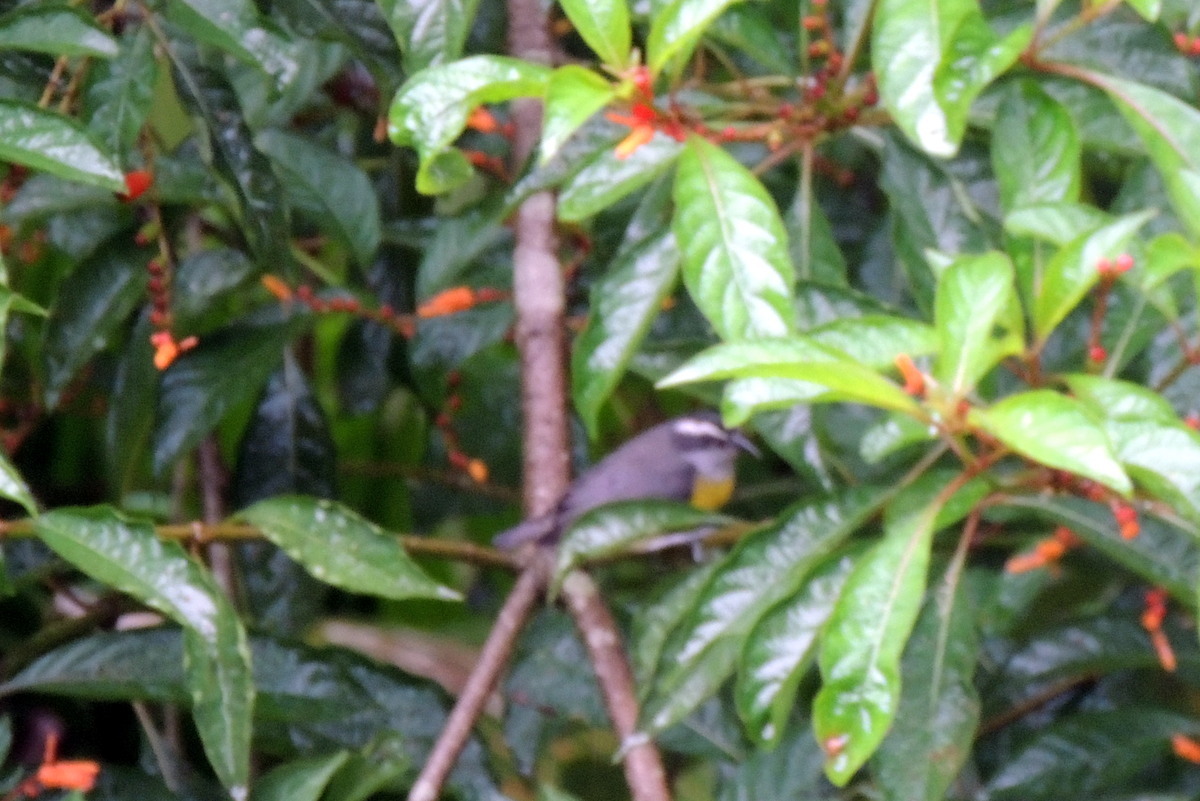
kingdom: Animalia
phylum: Chordata
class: Aves
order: Passeriformes
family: Thraupidae
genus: Coereba
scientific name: Coereba flaveola
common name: Bananaquit
